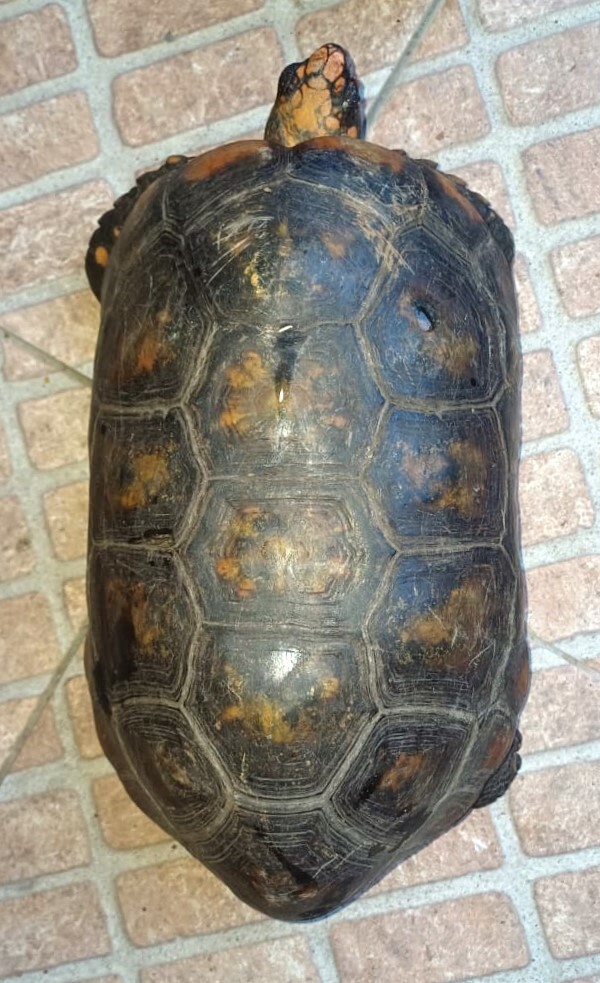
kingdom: Animalia
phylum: Chordata
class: Testudines
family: Testudinidae
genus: Chelonoidis
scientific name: Chelonoidis denticulatus
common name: Yellow-footed tortoise
